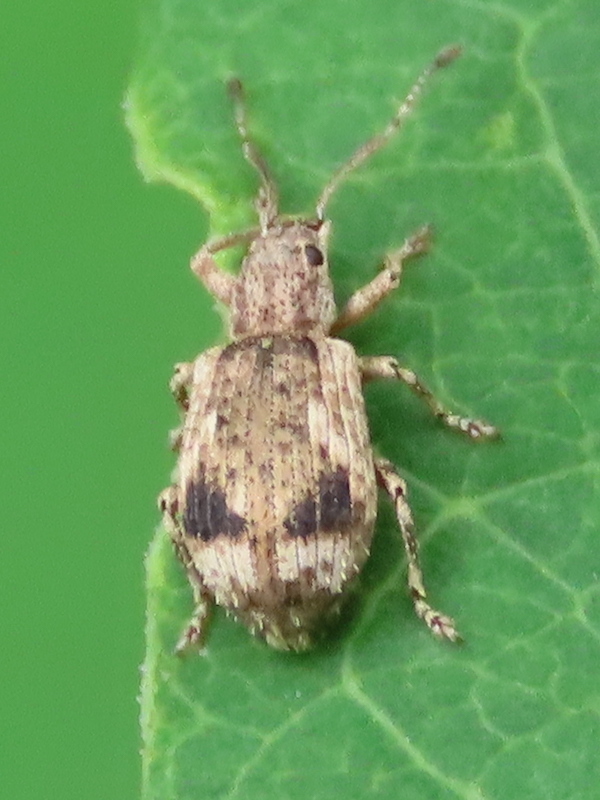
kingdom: Animalia
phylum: Arthropoda
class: Insecta
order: Coleoptera
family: Curculionidae
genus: Pseudoedophrys
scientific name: Pseudoedophrys hilleri
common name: Weevil
